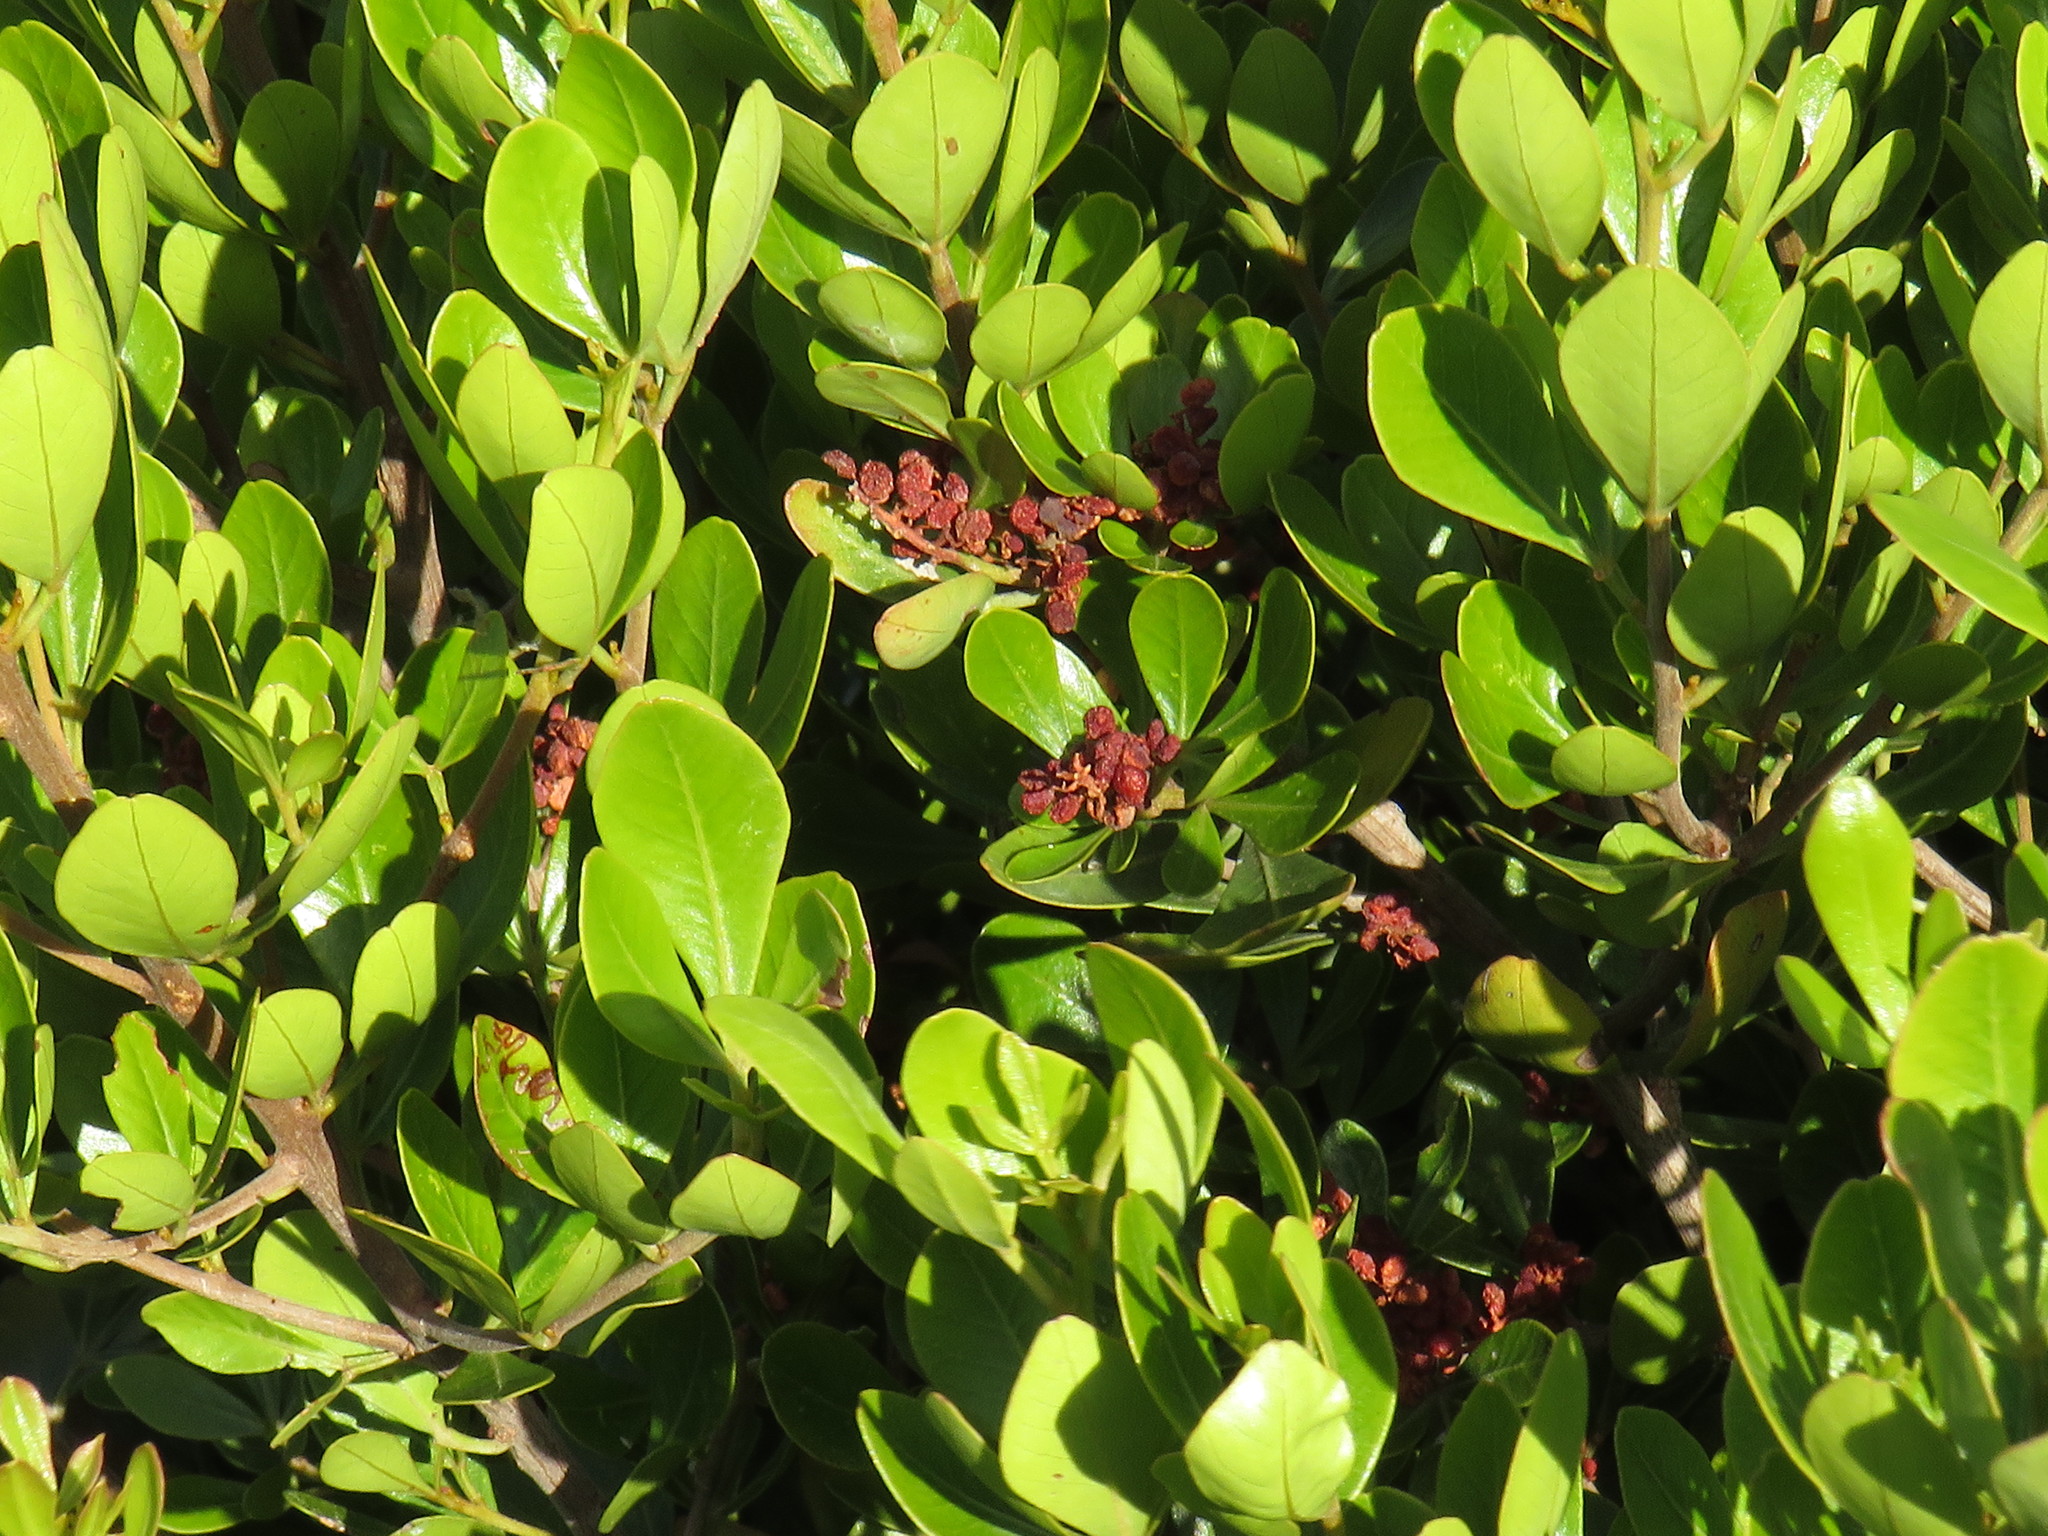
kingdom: Plantae
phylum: Tracheophyta
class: Magnoliopsida
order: Sapindales
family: Anacardiaceae
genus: Searsia
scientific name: Searsia lucida
